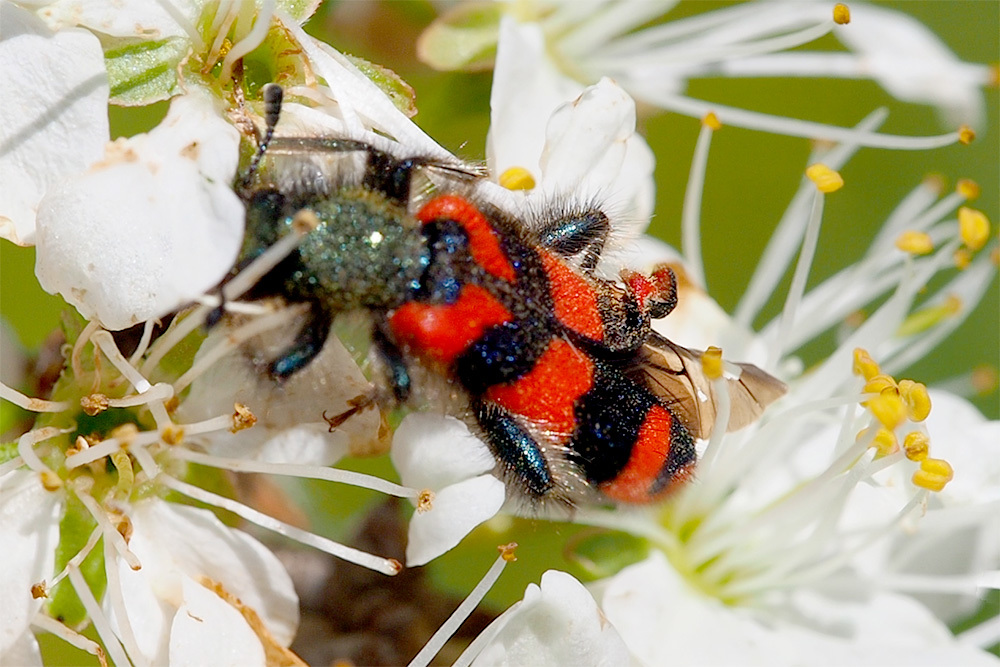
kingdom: Animalia
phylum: Arthropoda
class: Insecta
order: Coleoptera
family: Cleridae
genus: Trichodes
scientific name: Trichodes alvearius
